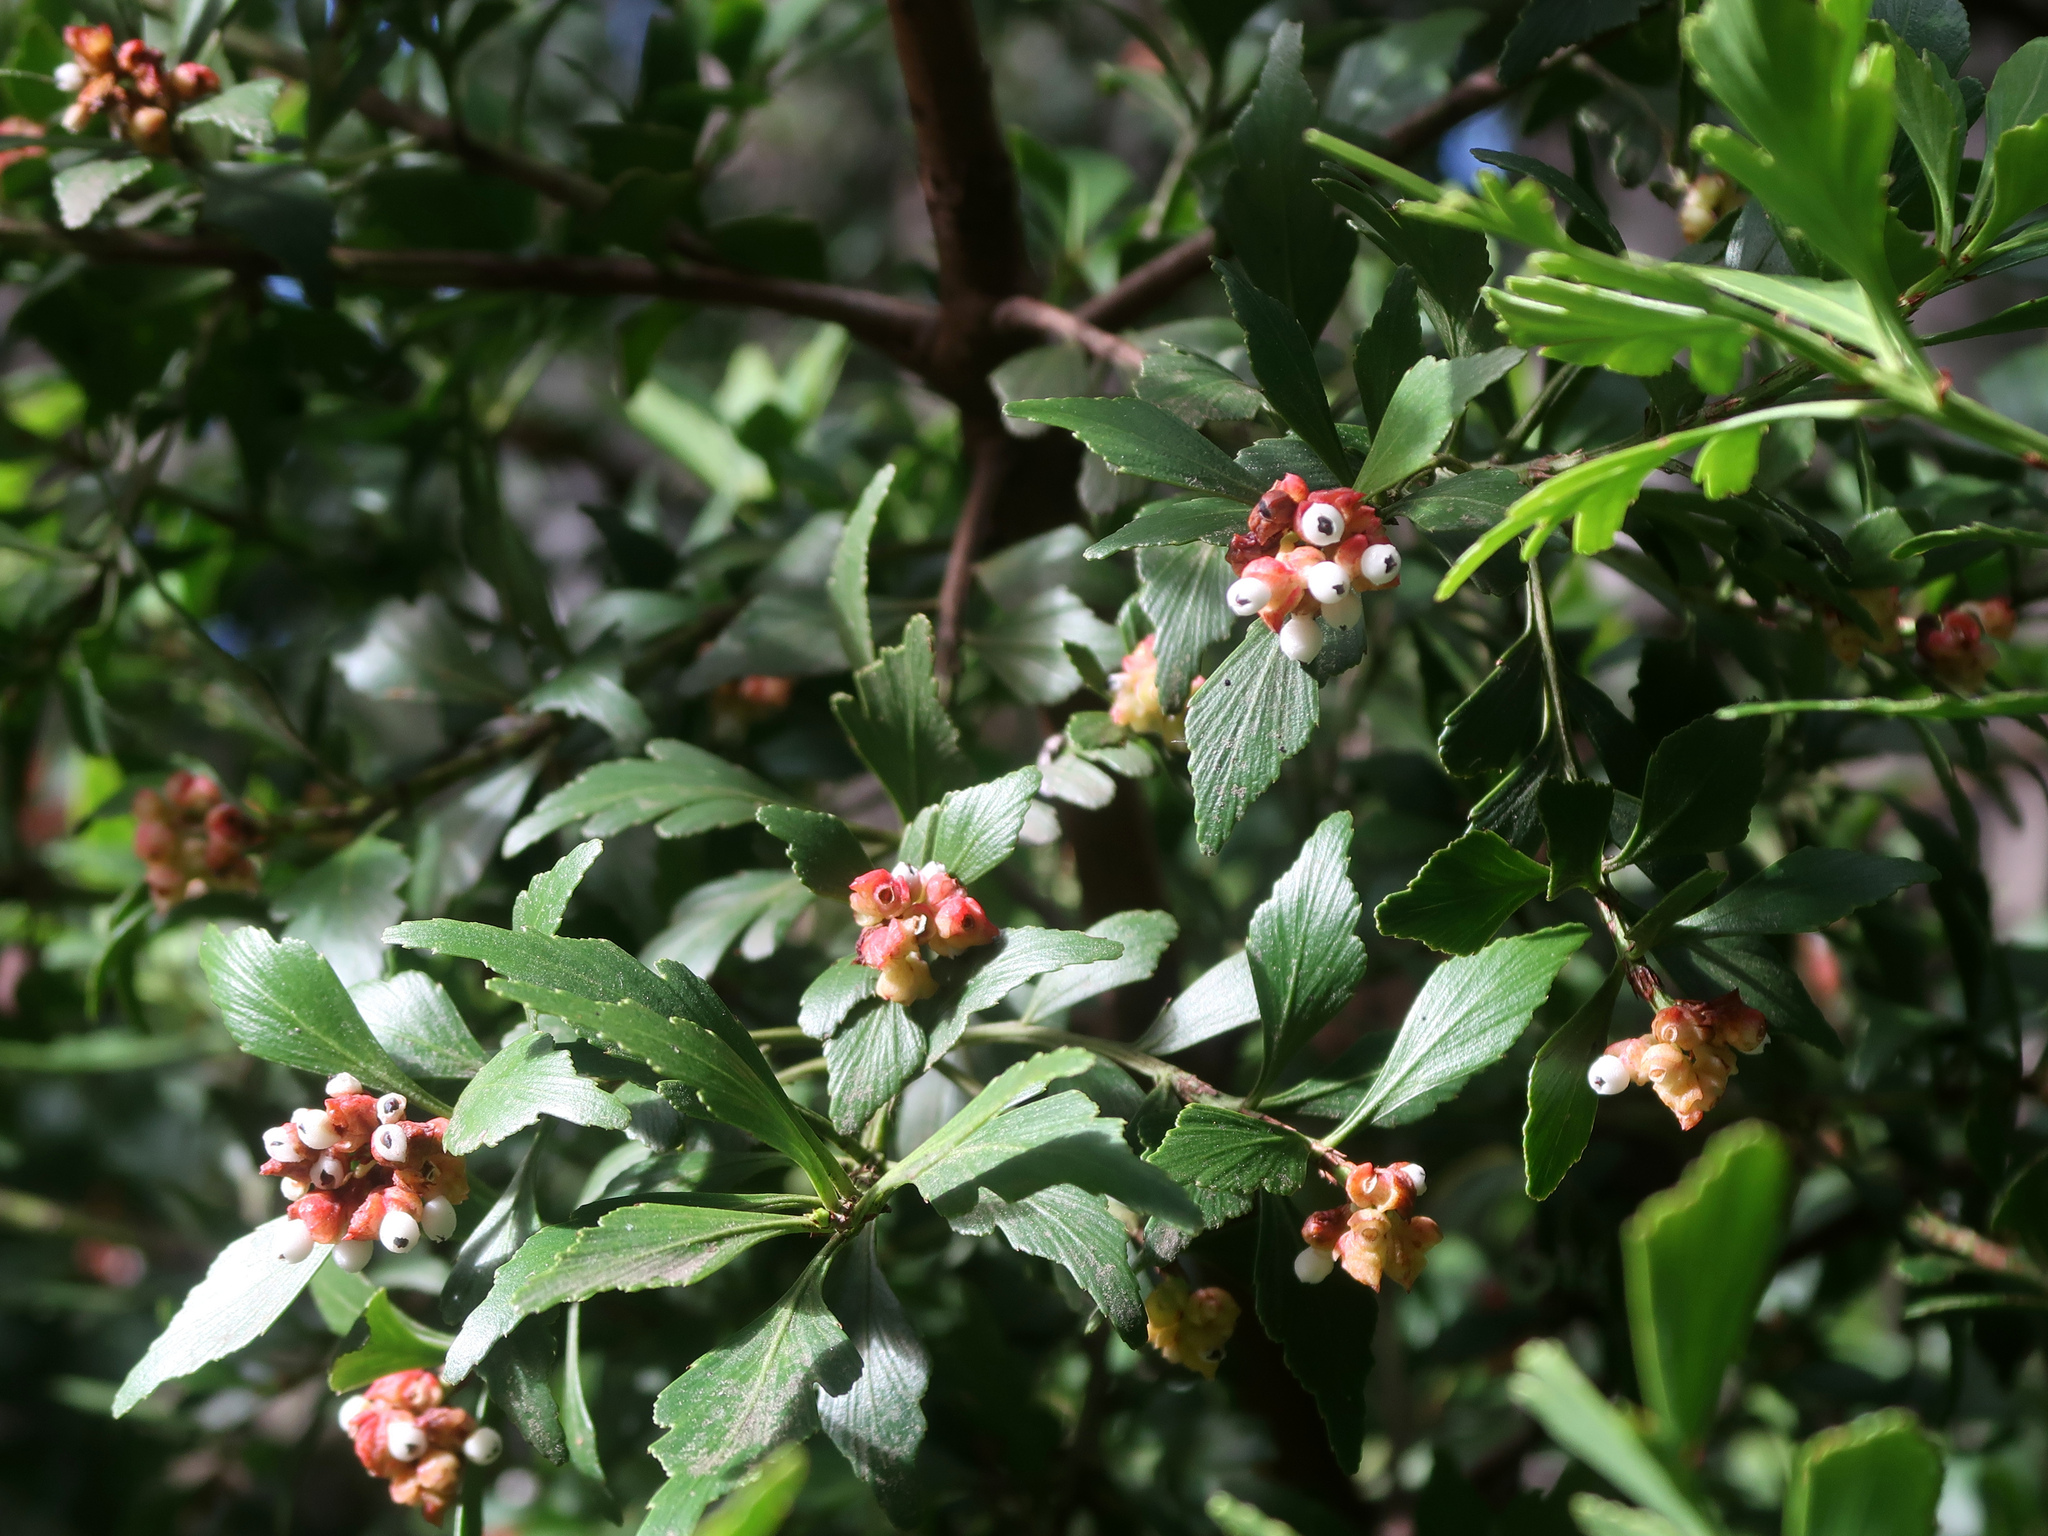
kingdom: Plantae
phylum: Tracheophyta
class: Pinopsida
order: Pinales
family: Phyllocladaceae
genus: Phyllocladus
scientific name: Phyllocladus aspleniifolius
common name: Celery-top pine
